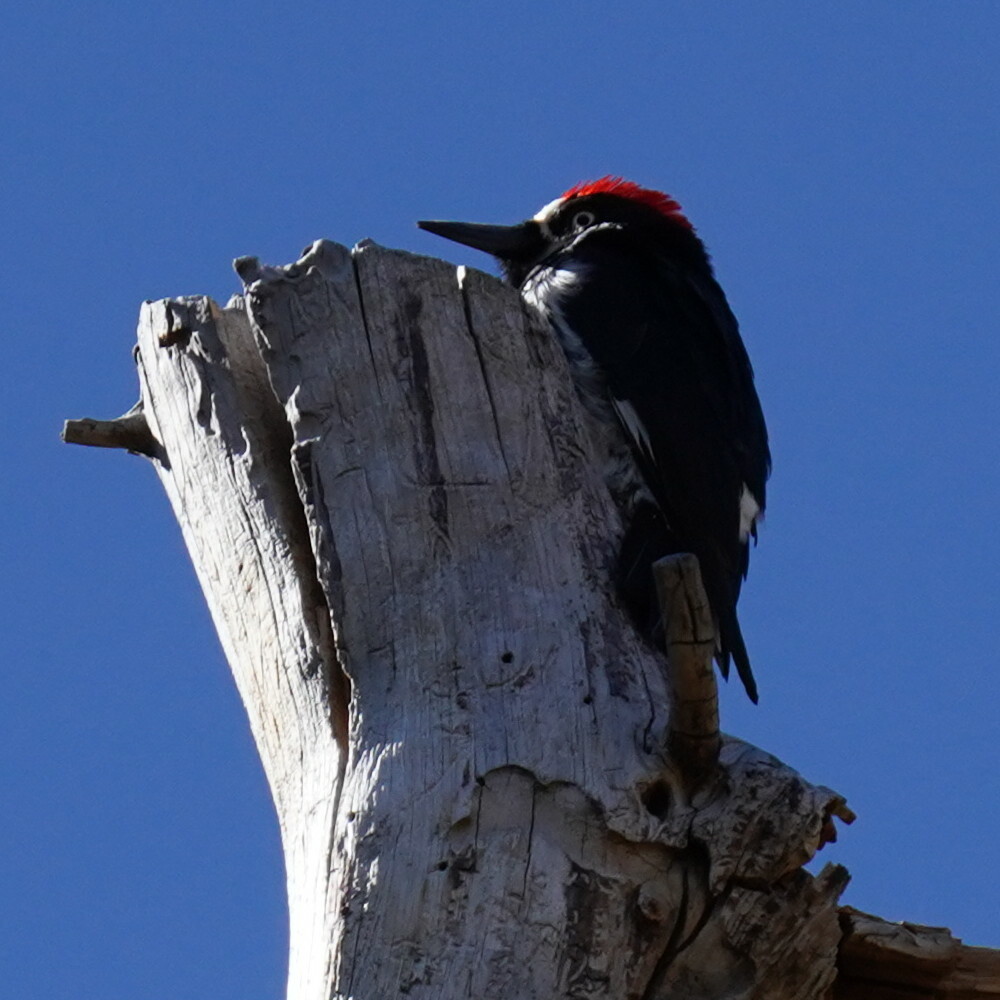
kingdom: Animalia
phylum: Chordata
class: Aves
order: Piciformes
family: Picidae
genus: Melanerpes
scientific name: Melanerpes formicivorus
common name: Acorn woodpecker
